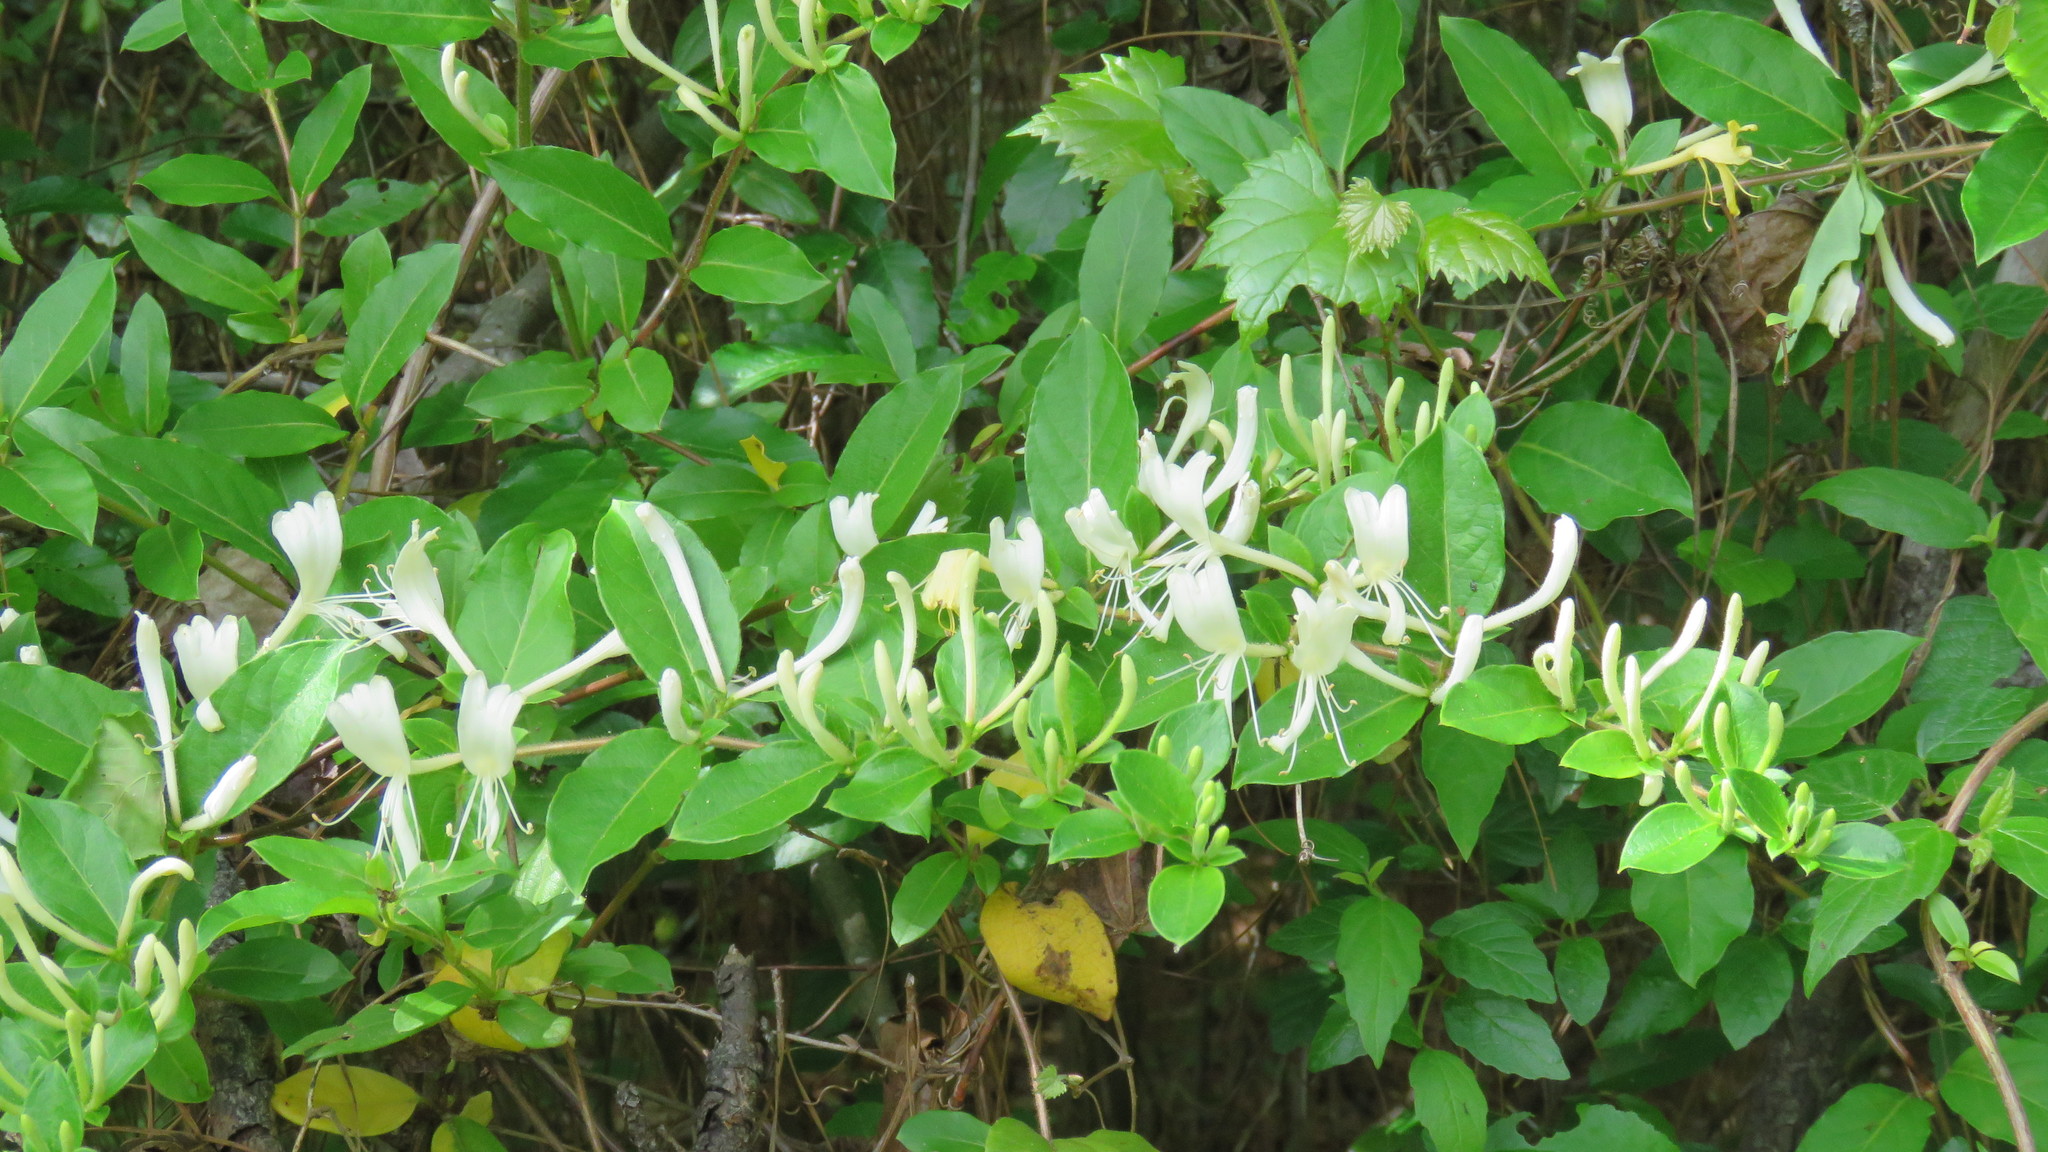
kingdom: Plantae
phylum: Tracheophyta
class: Magnoliopsida
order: Dipsacales
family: Caprifoliaceae
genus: Lonicera
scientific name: Lonicera japonica
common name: Japanese honeysuckle
